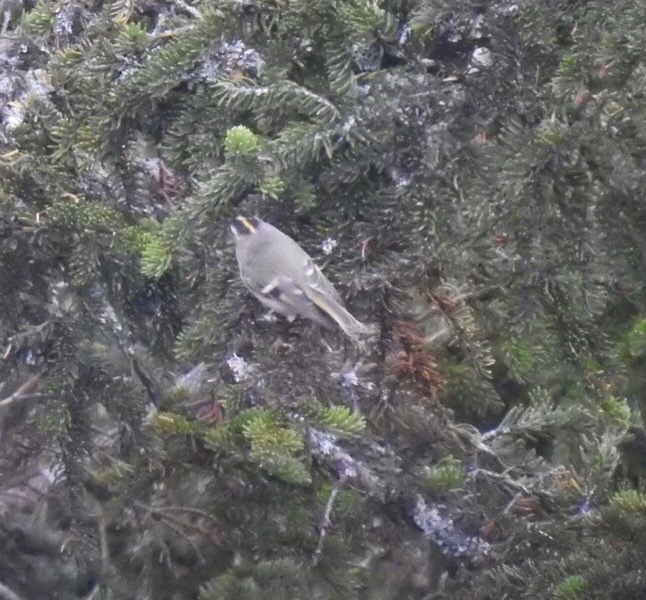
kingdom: Animalia
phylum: Chordata
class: Aves
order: Passeriformes
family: Regulidae
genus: Regulus
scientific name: Regulus satrapa
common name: Golden-crowned kinglet
